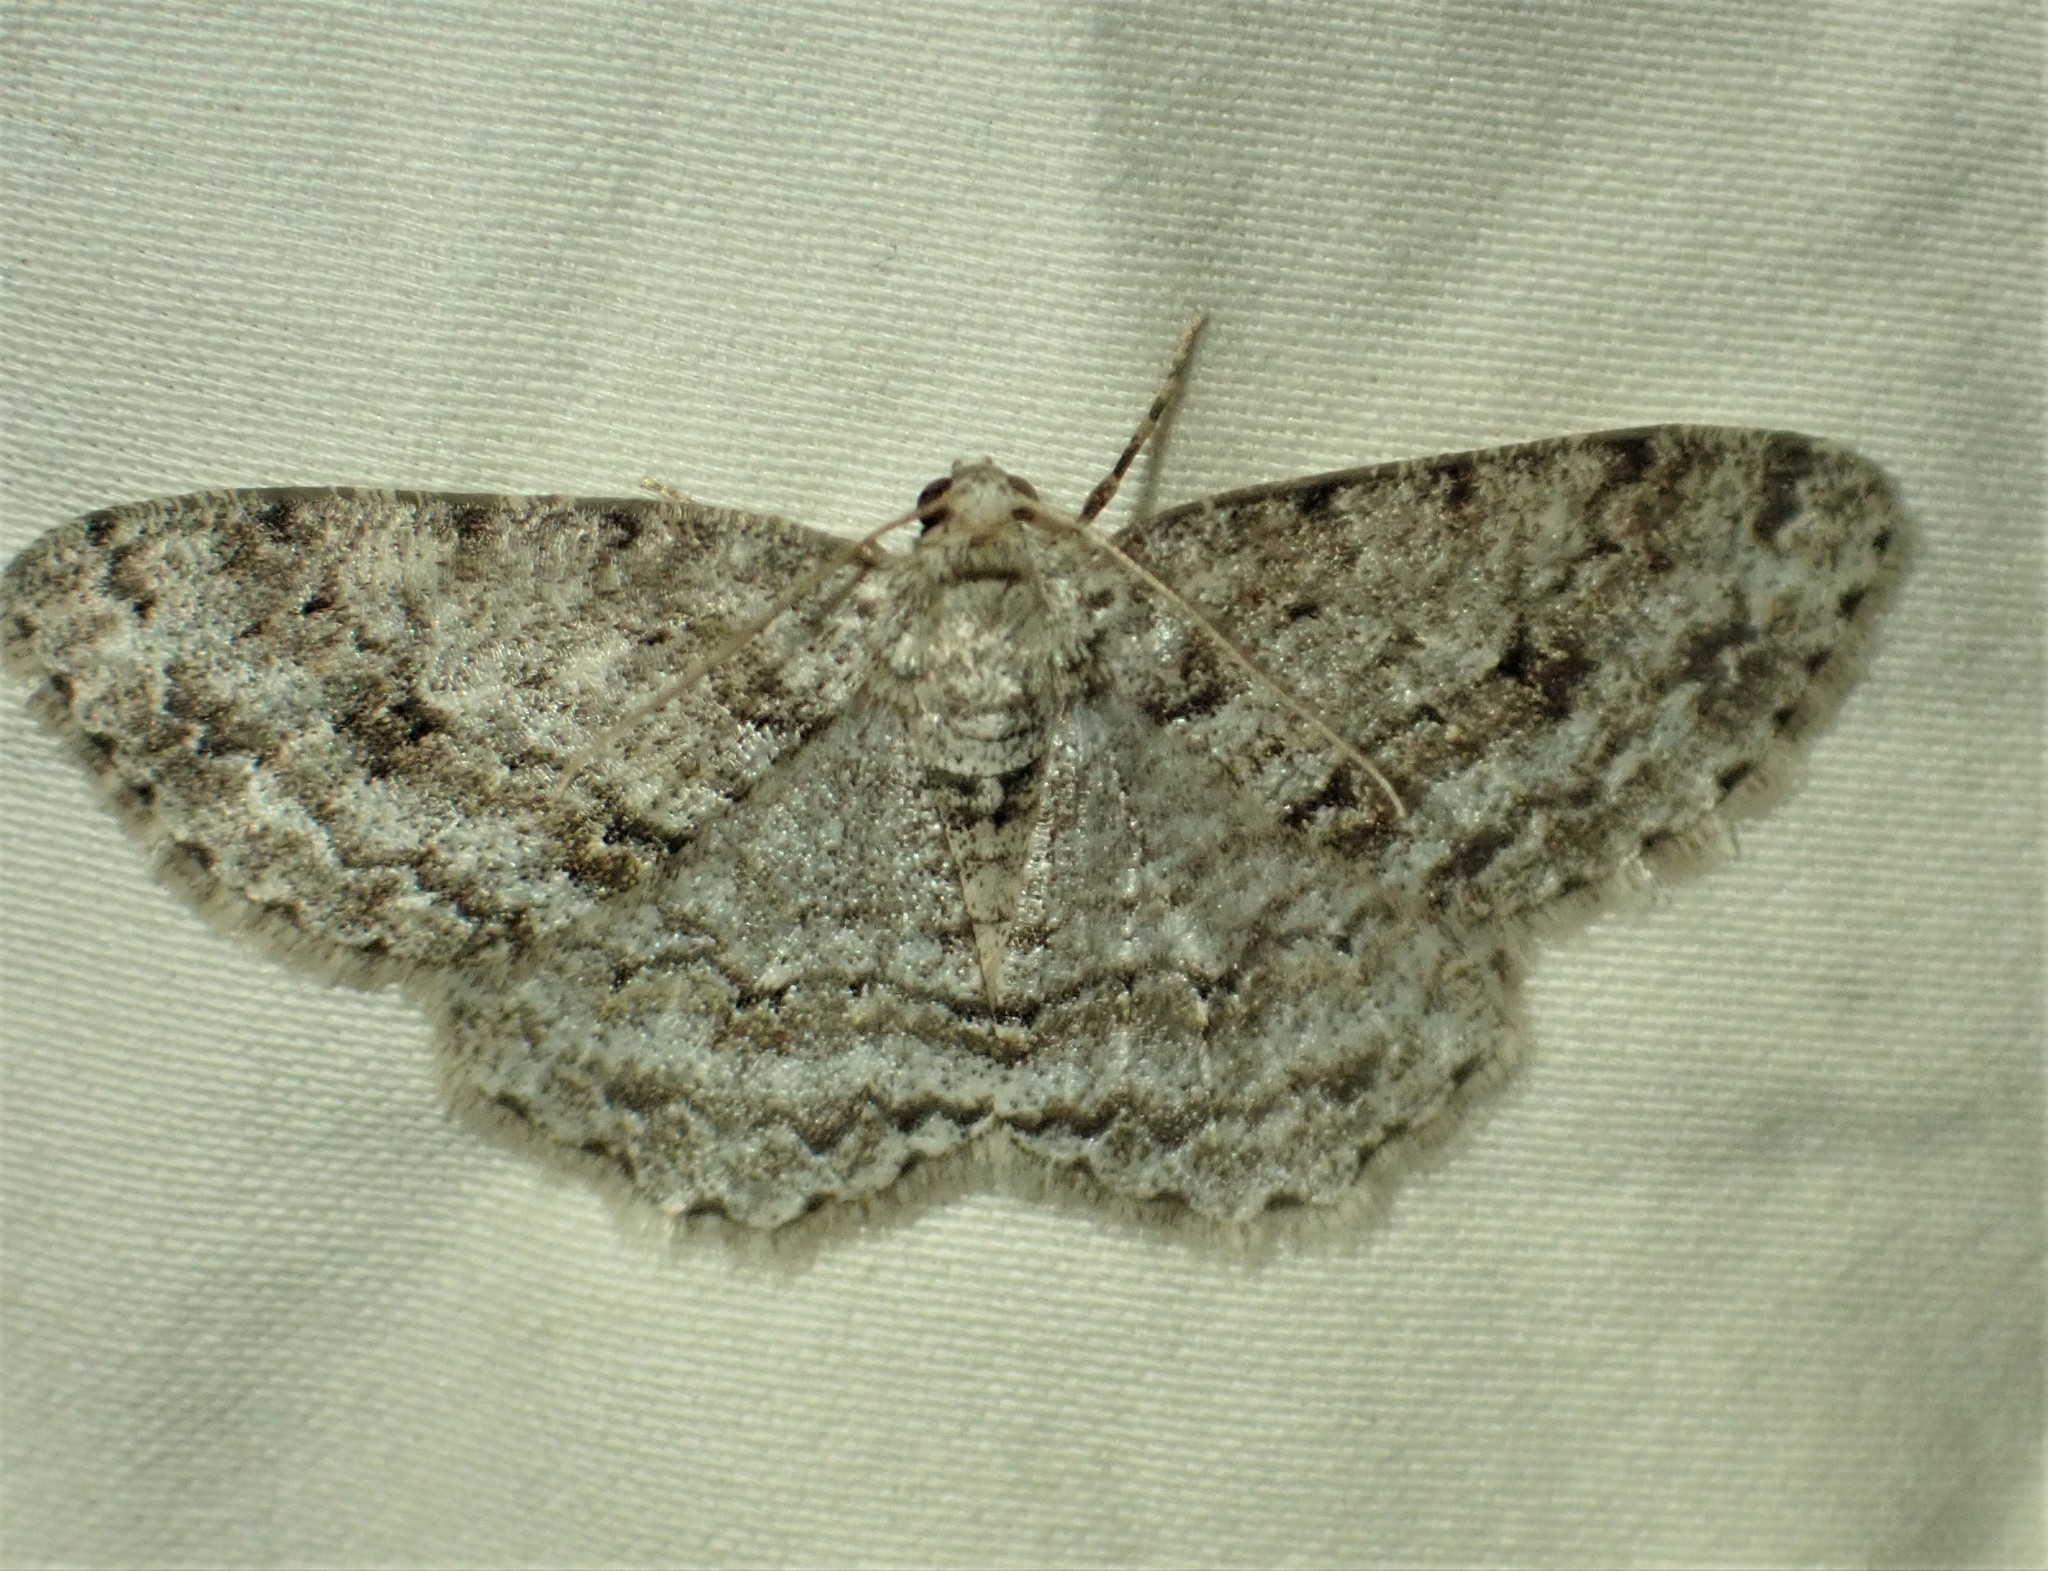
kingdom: Animalia
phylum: Arthropoda
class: Insecta
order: Lepidoptera
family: Geometridae
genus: Ectropis
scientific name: Ectropis crepuscularia
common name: Engrailed
